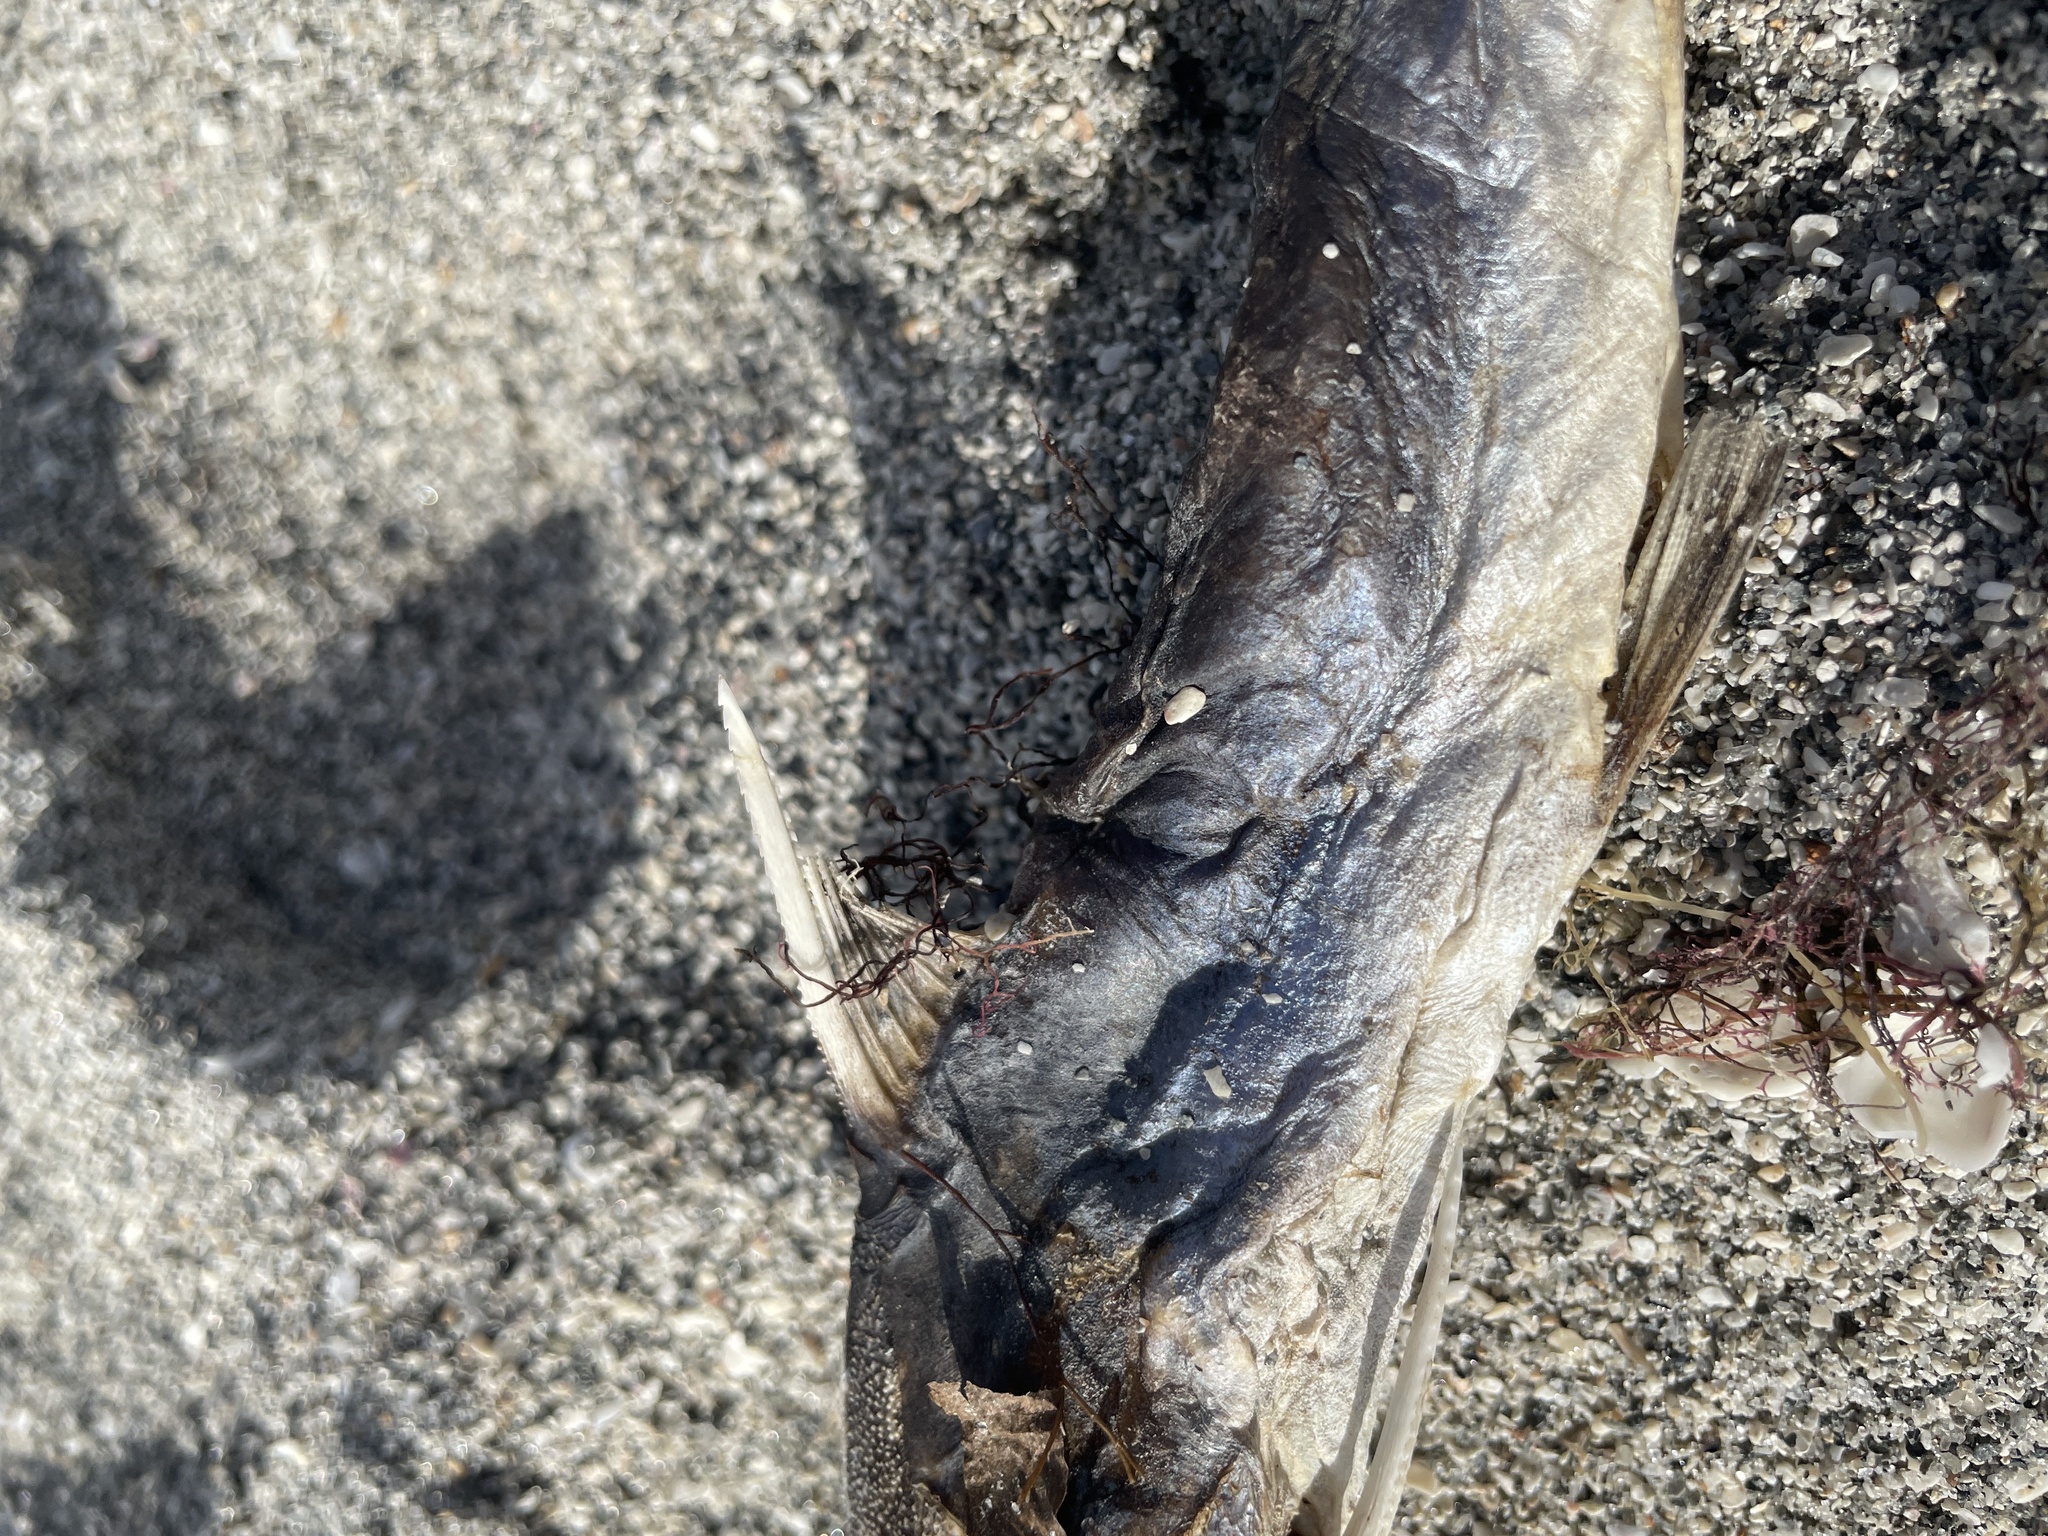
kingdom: Animalia
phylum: Chordata
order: Siluriformes
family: Ariidae
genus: Ariopsis
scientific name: Ariopsis felis
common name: Hardhead catfish
